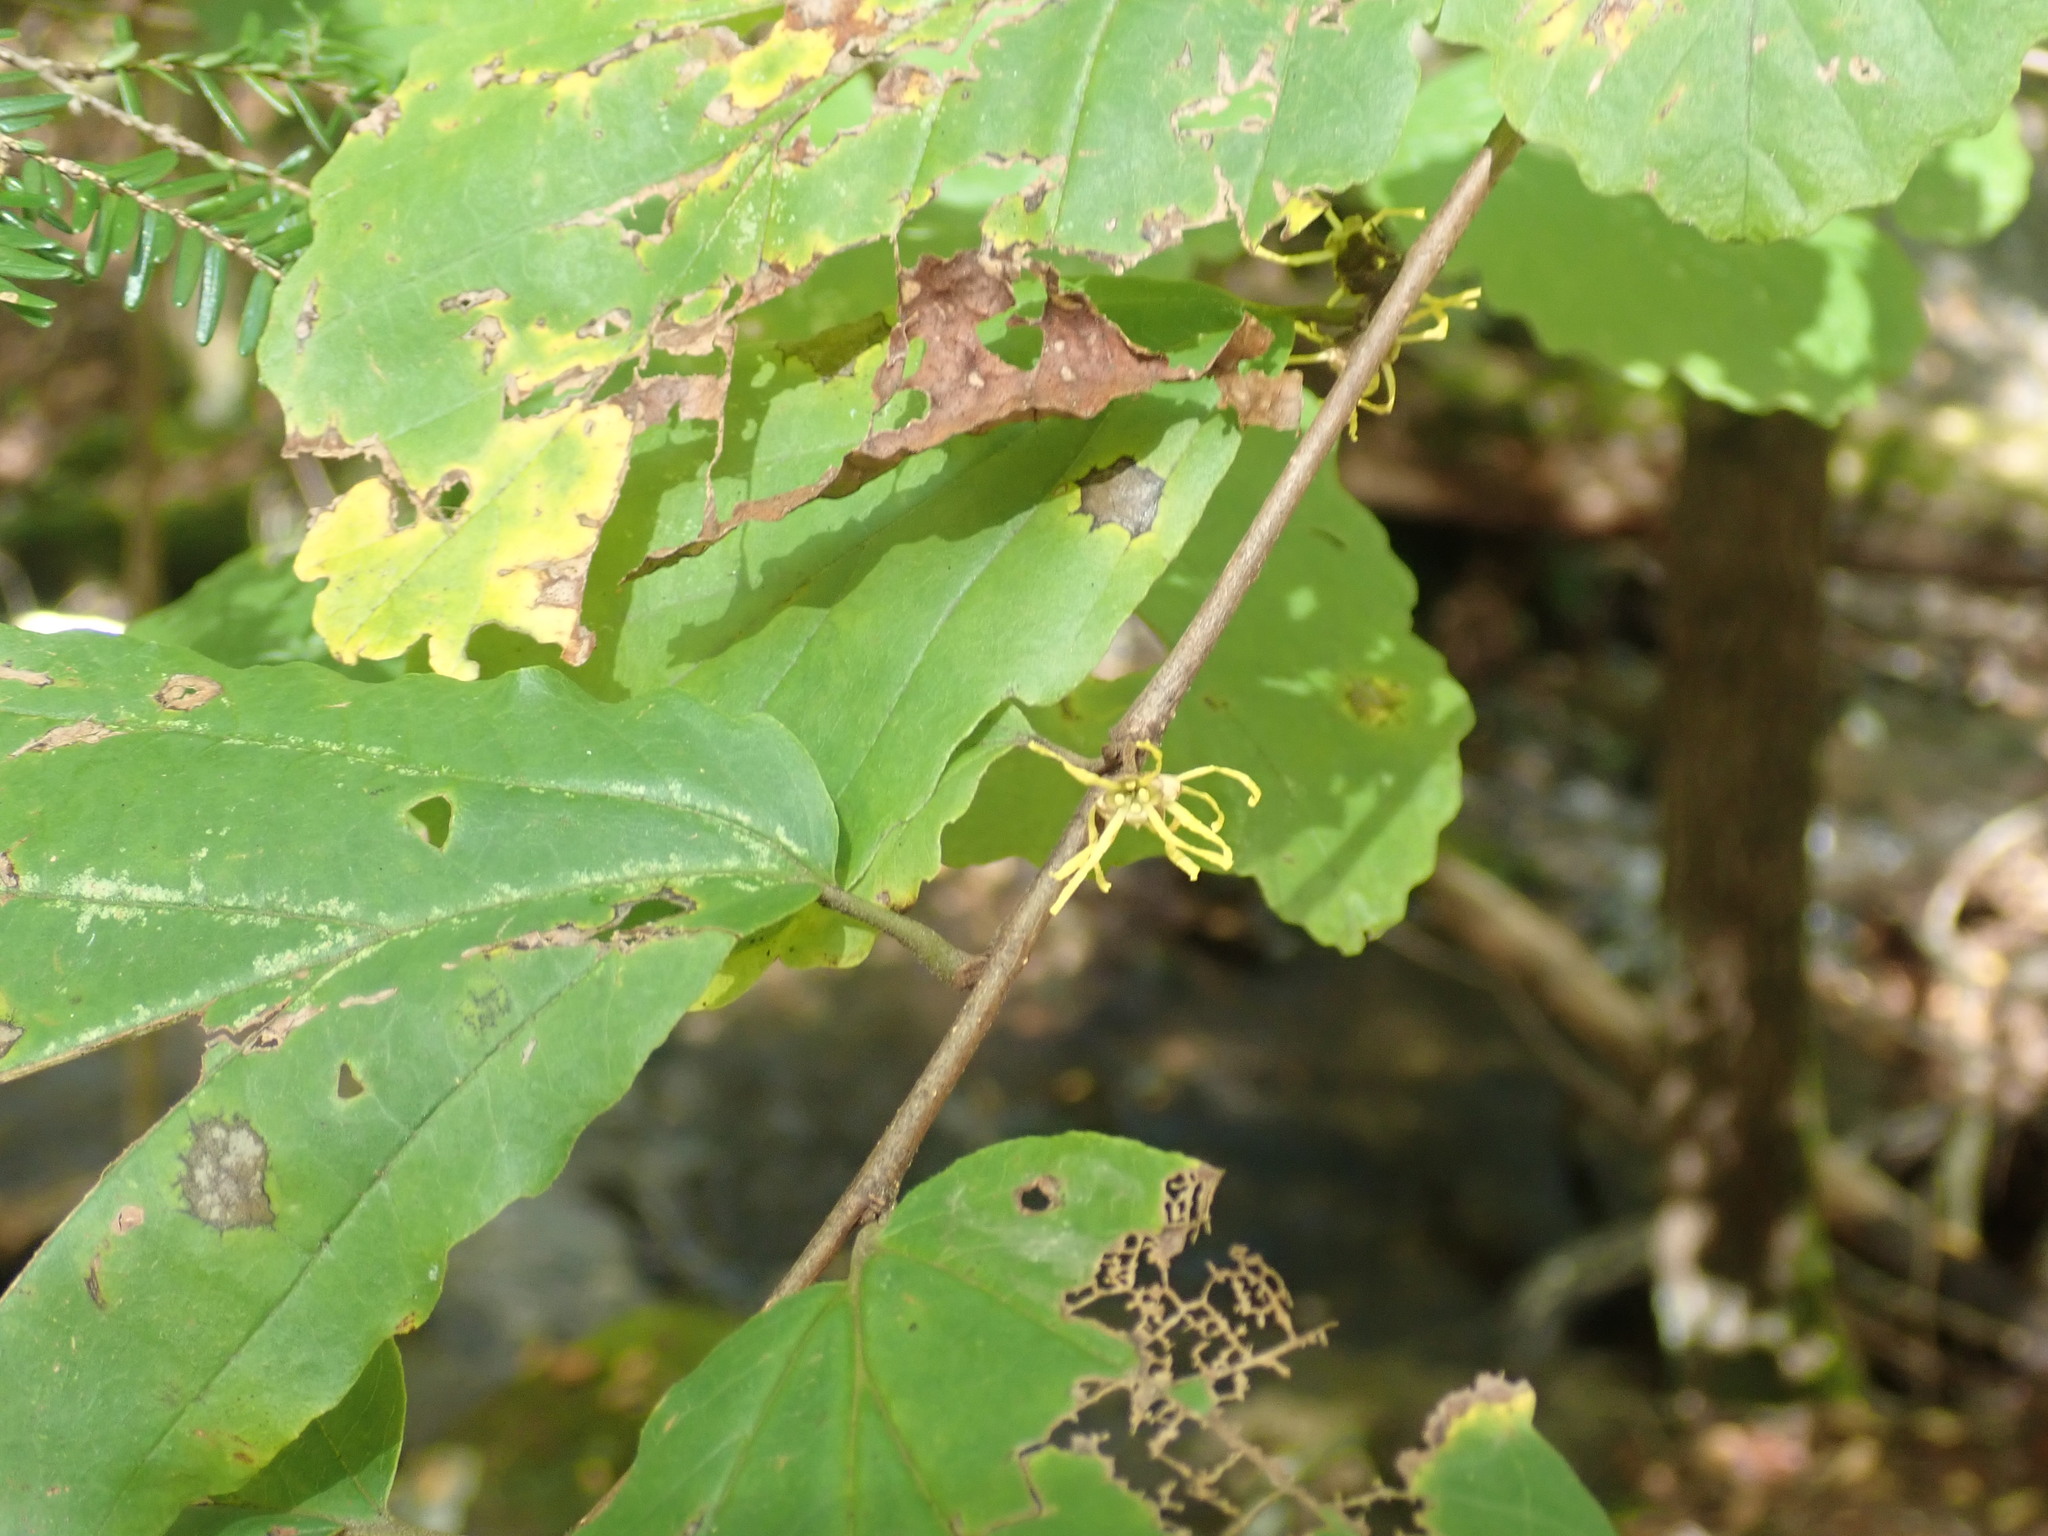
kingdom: Plantae
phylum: Tracheophyta
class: Magnoliopsida
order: Saxifragales
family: Hamamelidaceae
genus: Hamamelis
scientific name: Hamamelis virginiana
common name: Witch-hazel
